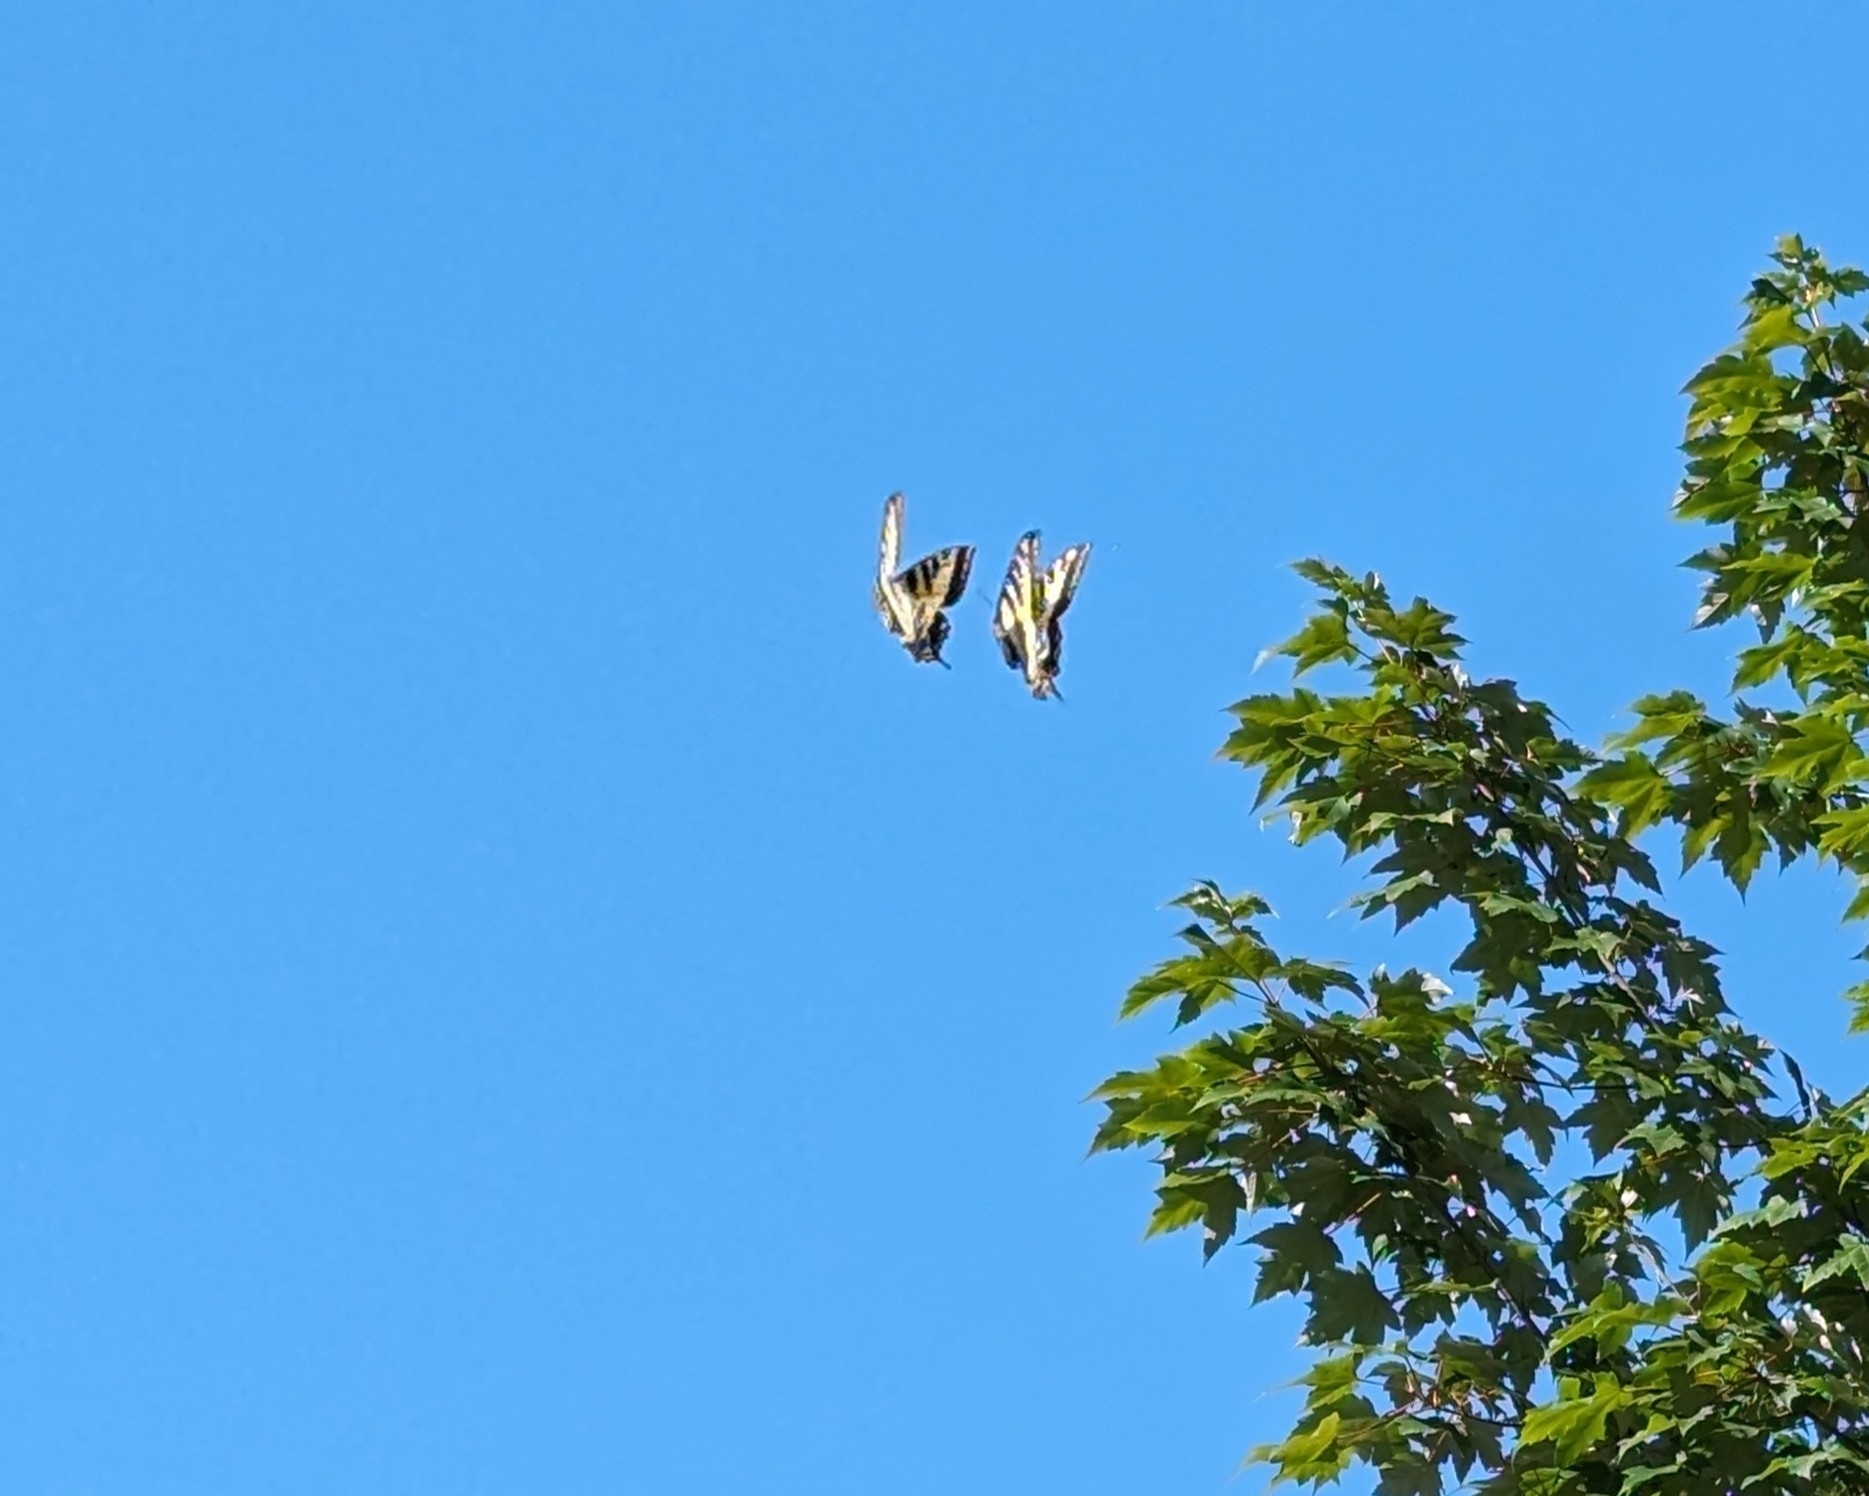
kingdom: Animalia
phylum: Arthropoda
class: Insecta
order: Lepidoptera
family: Papilionidae
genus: Papilio
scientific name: Papilio rutulus
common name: Western tiger swallowtail
